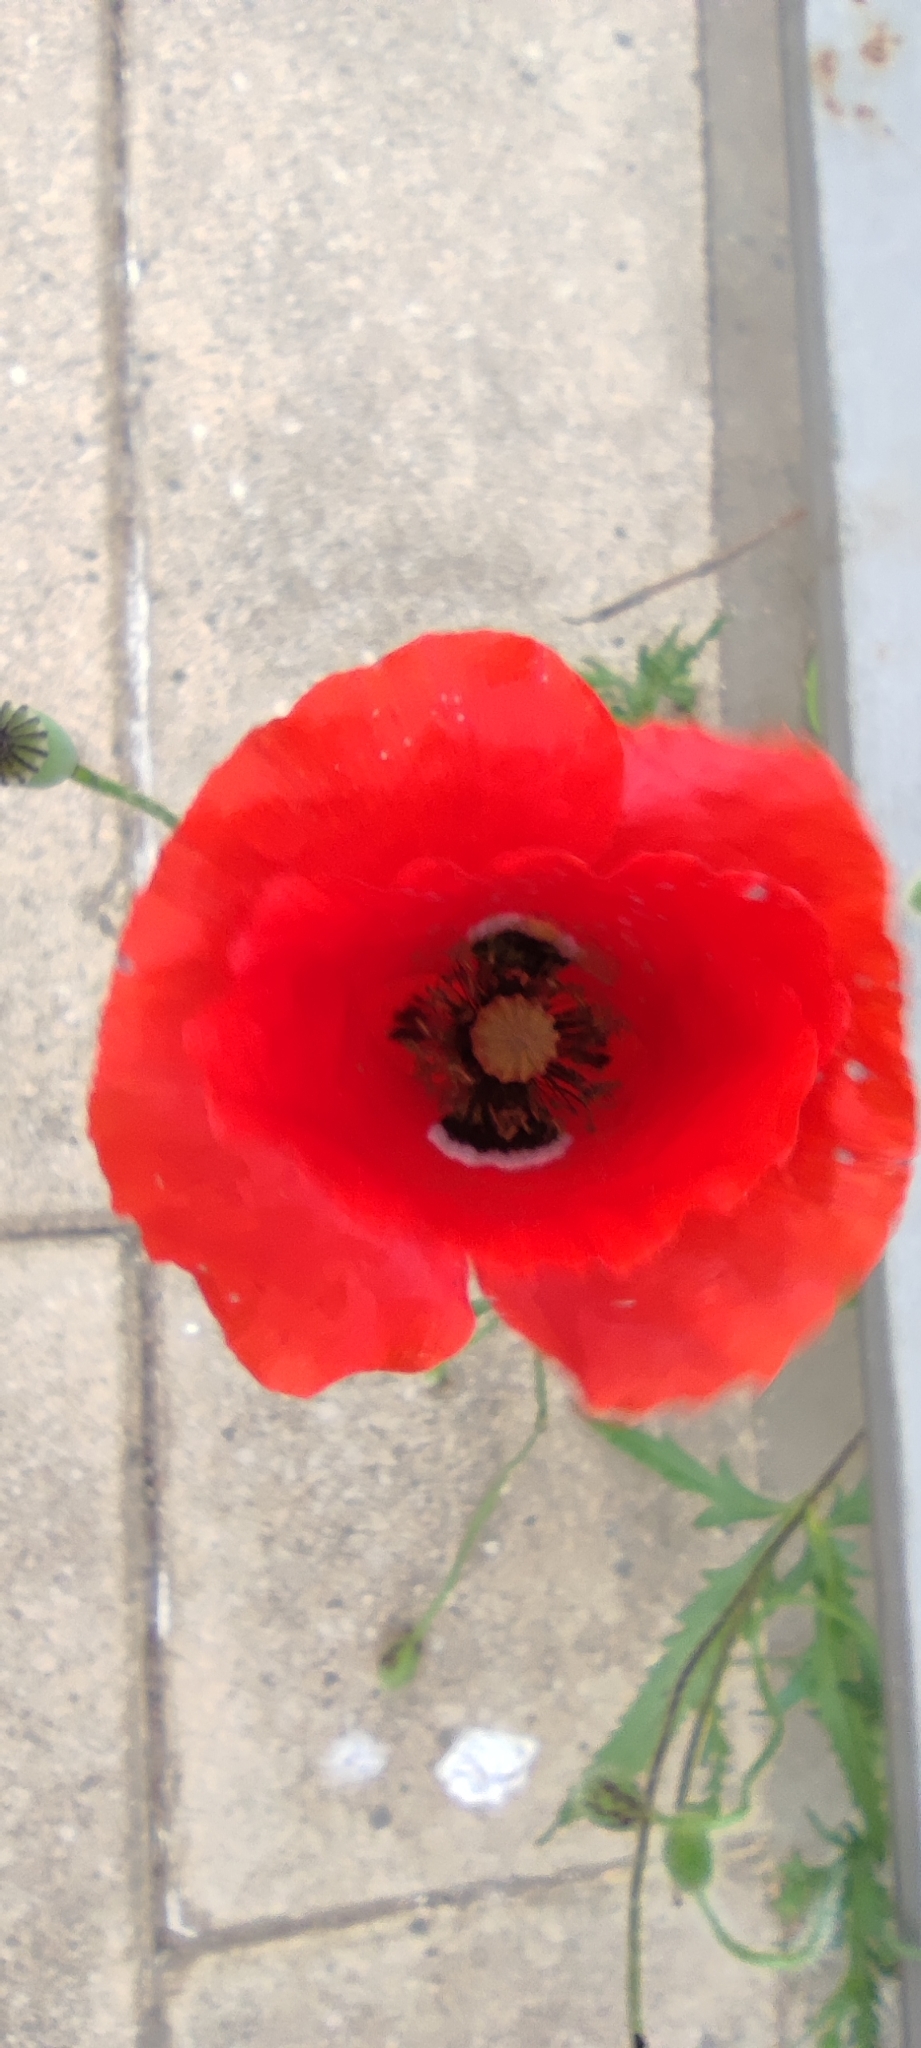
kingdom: Plantae
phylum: Tracheophyta
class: Magnoliopsida
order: Ranunculales
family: Papaveraceae
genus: Papaver
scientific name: Papaver rhoeas
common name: Corn poppy
